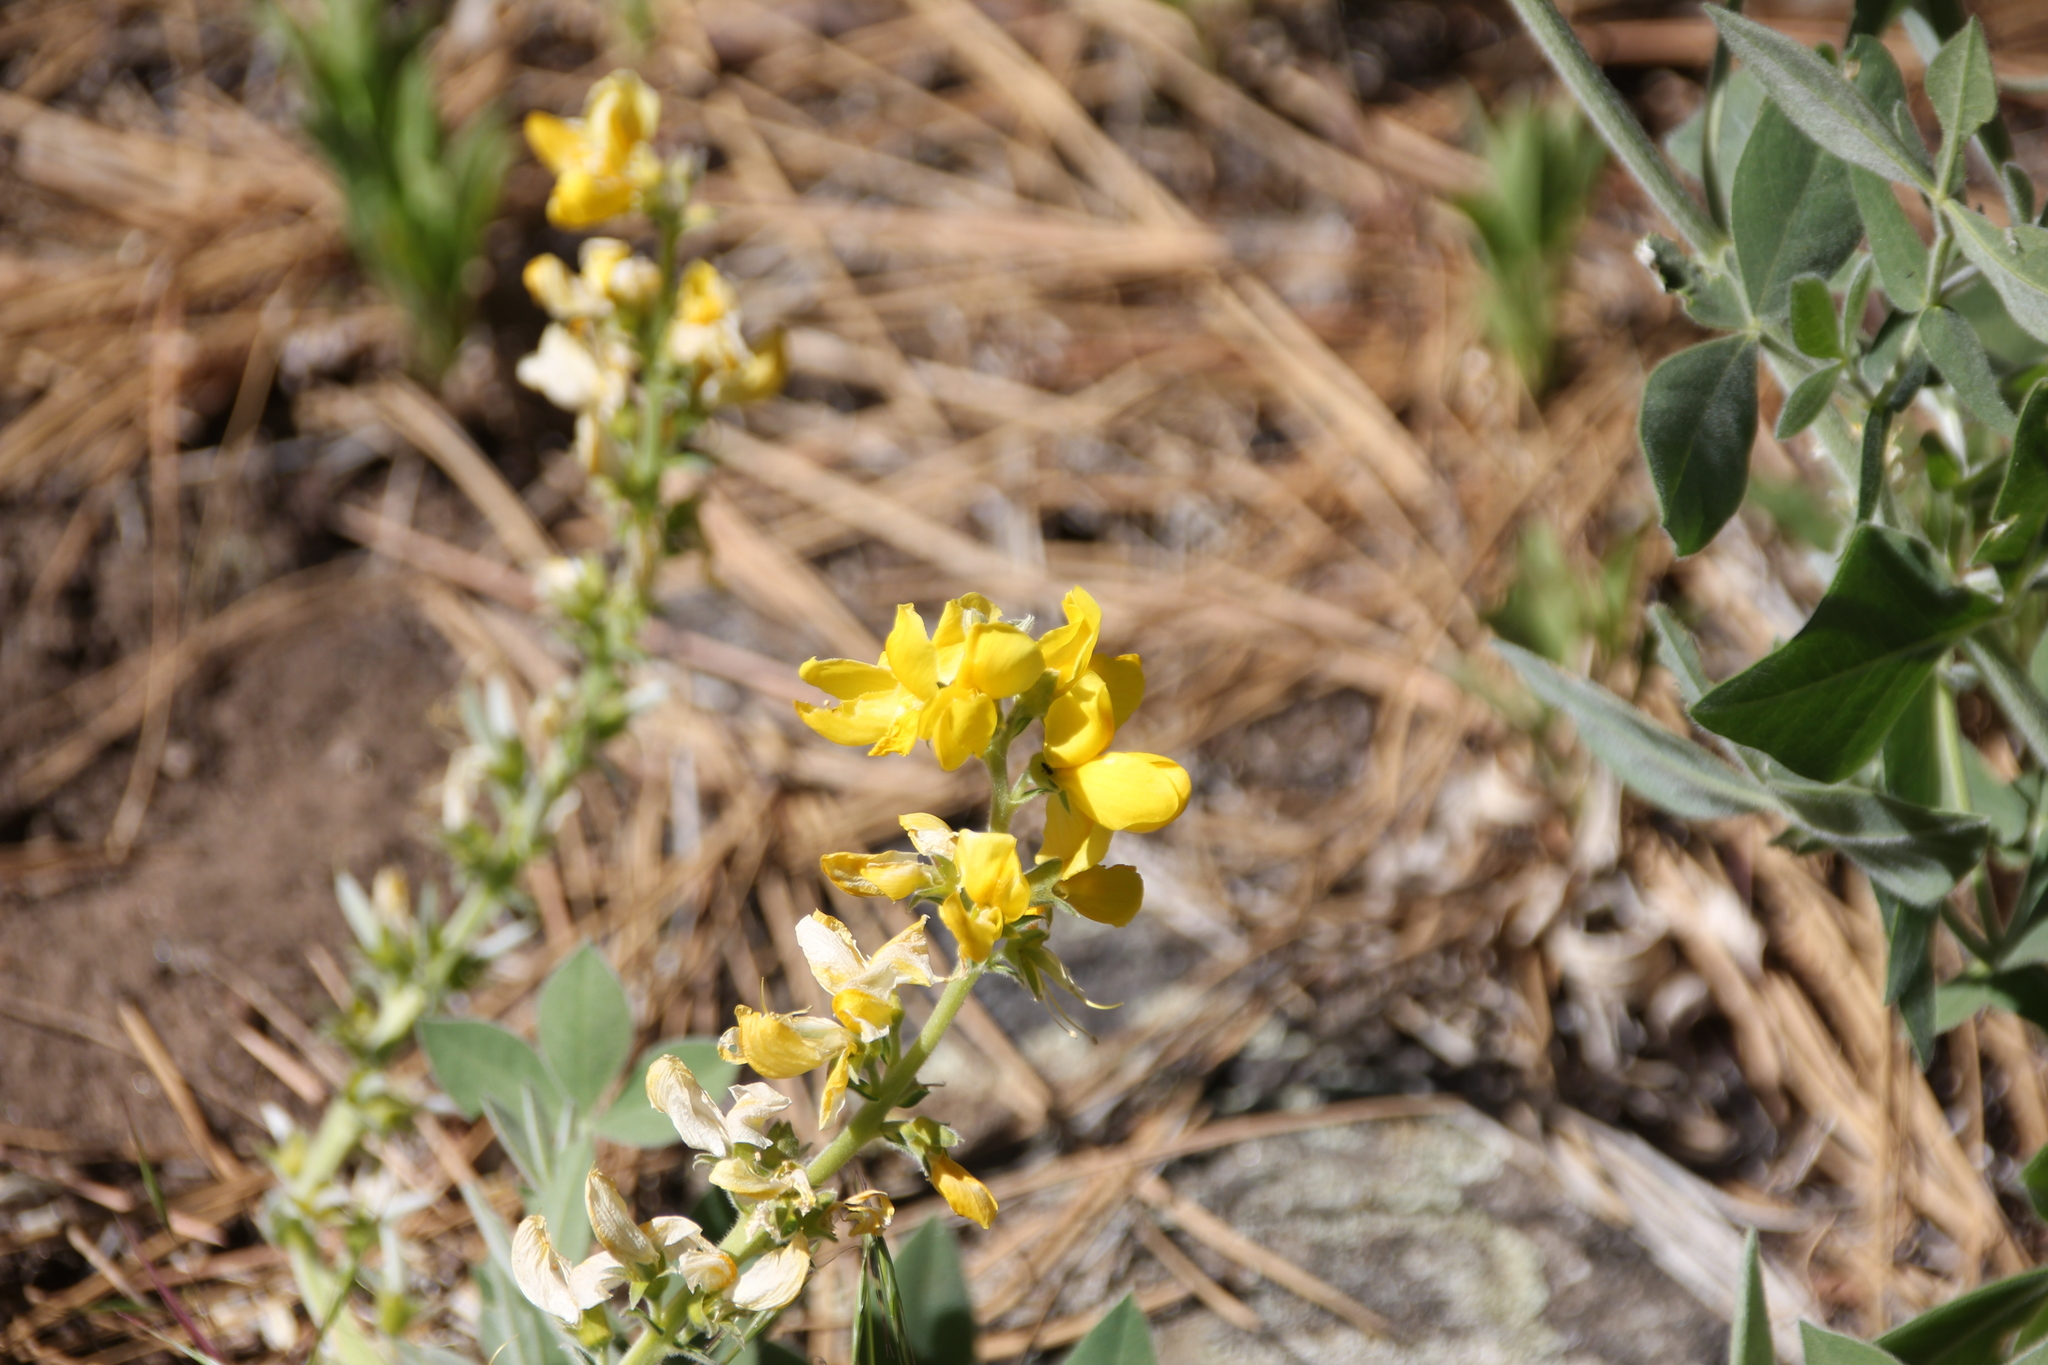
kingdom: Plantae
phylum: Tracheophyta
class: Magnoliopsida
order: Fabales
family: Fabaceae
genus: Thermopsis
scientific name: Thermopsis californica
